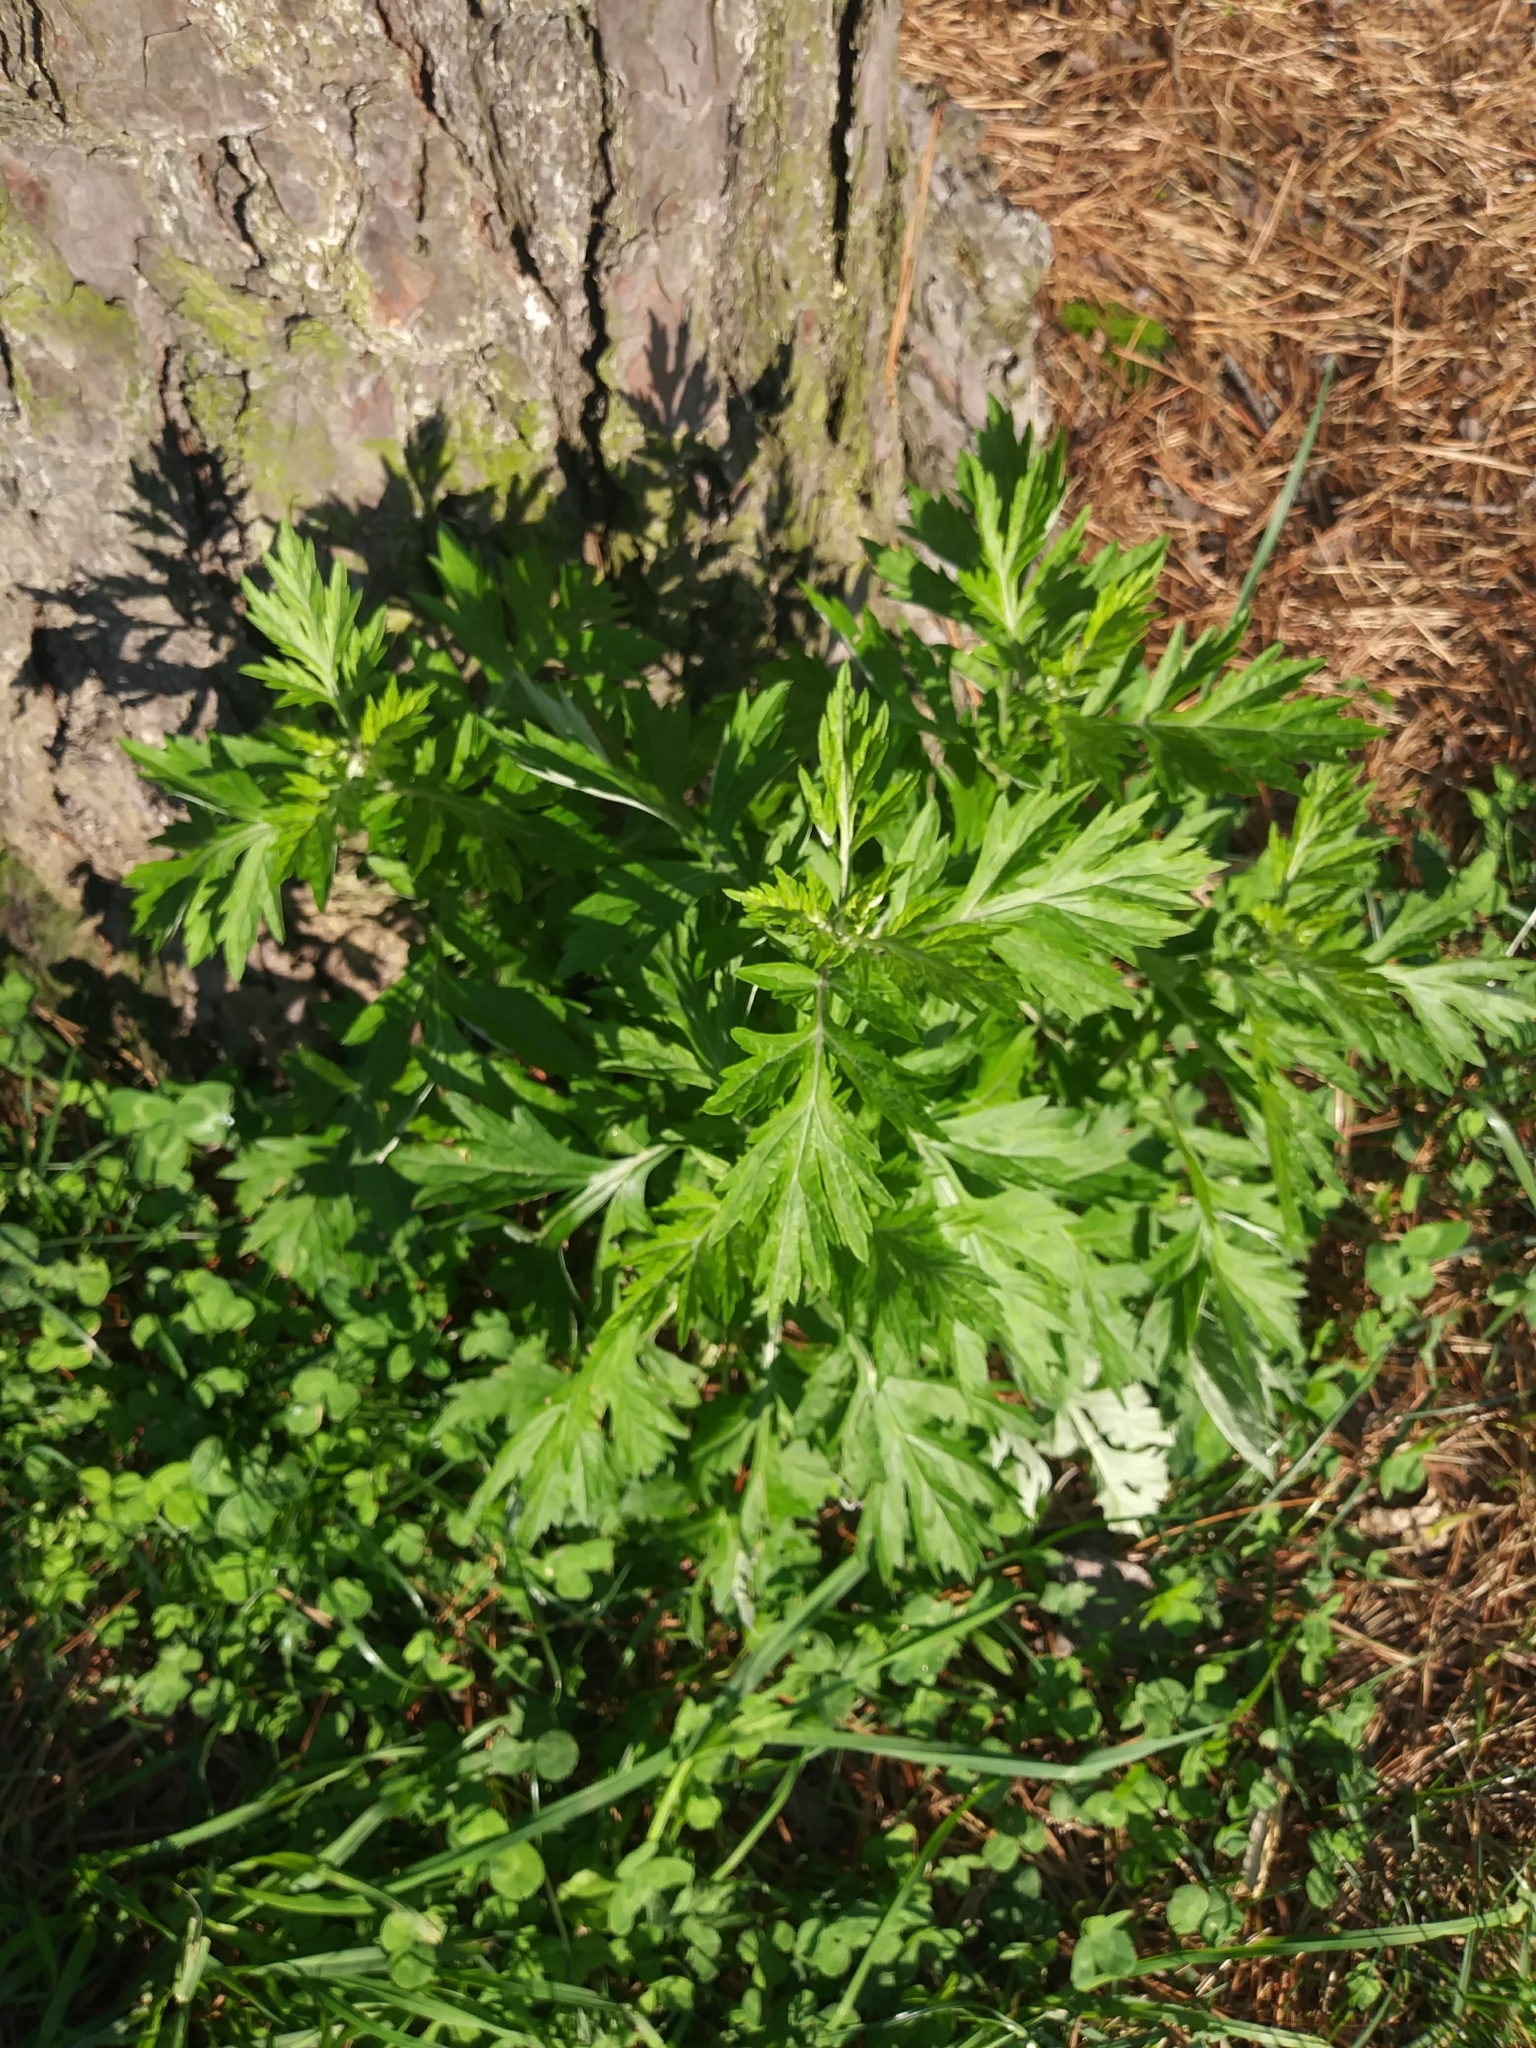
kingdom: Plantae
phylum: Tracheophyta
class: Magnoliopsida
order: Asterales
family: Asteraceae
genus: Artemisia
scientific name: Artemisia vulgaris
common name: Mugwort
